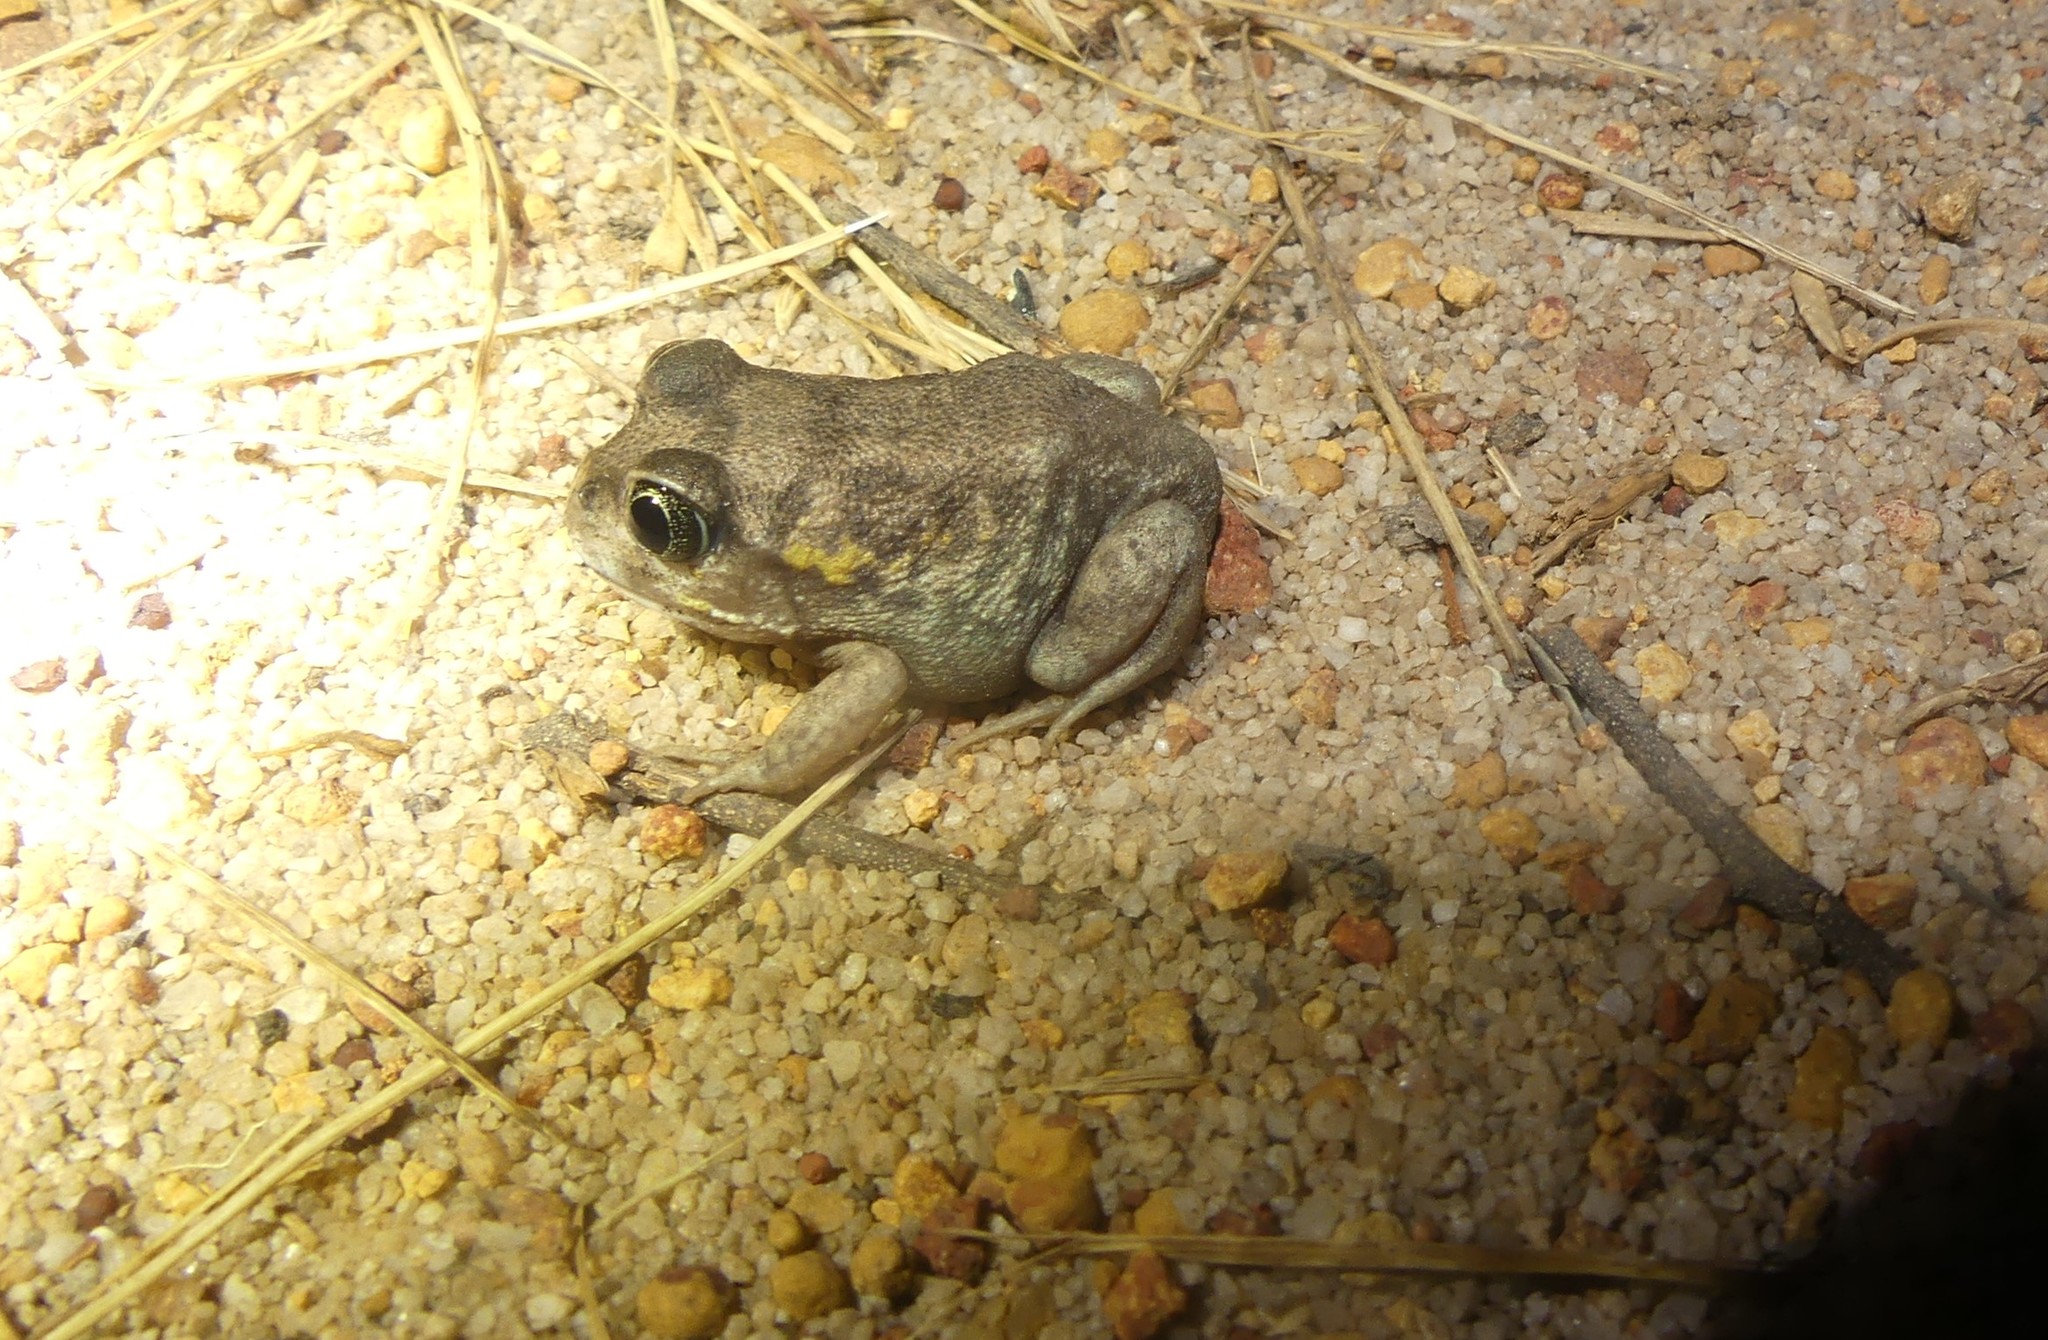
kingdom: Animalia
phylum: Chordata
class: Amphibia
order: Anura
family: Limnodynastidae
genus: Heleioporus
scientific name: Heleioporus eyrei
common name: Moaning frog
